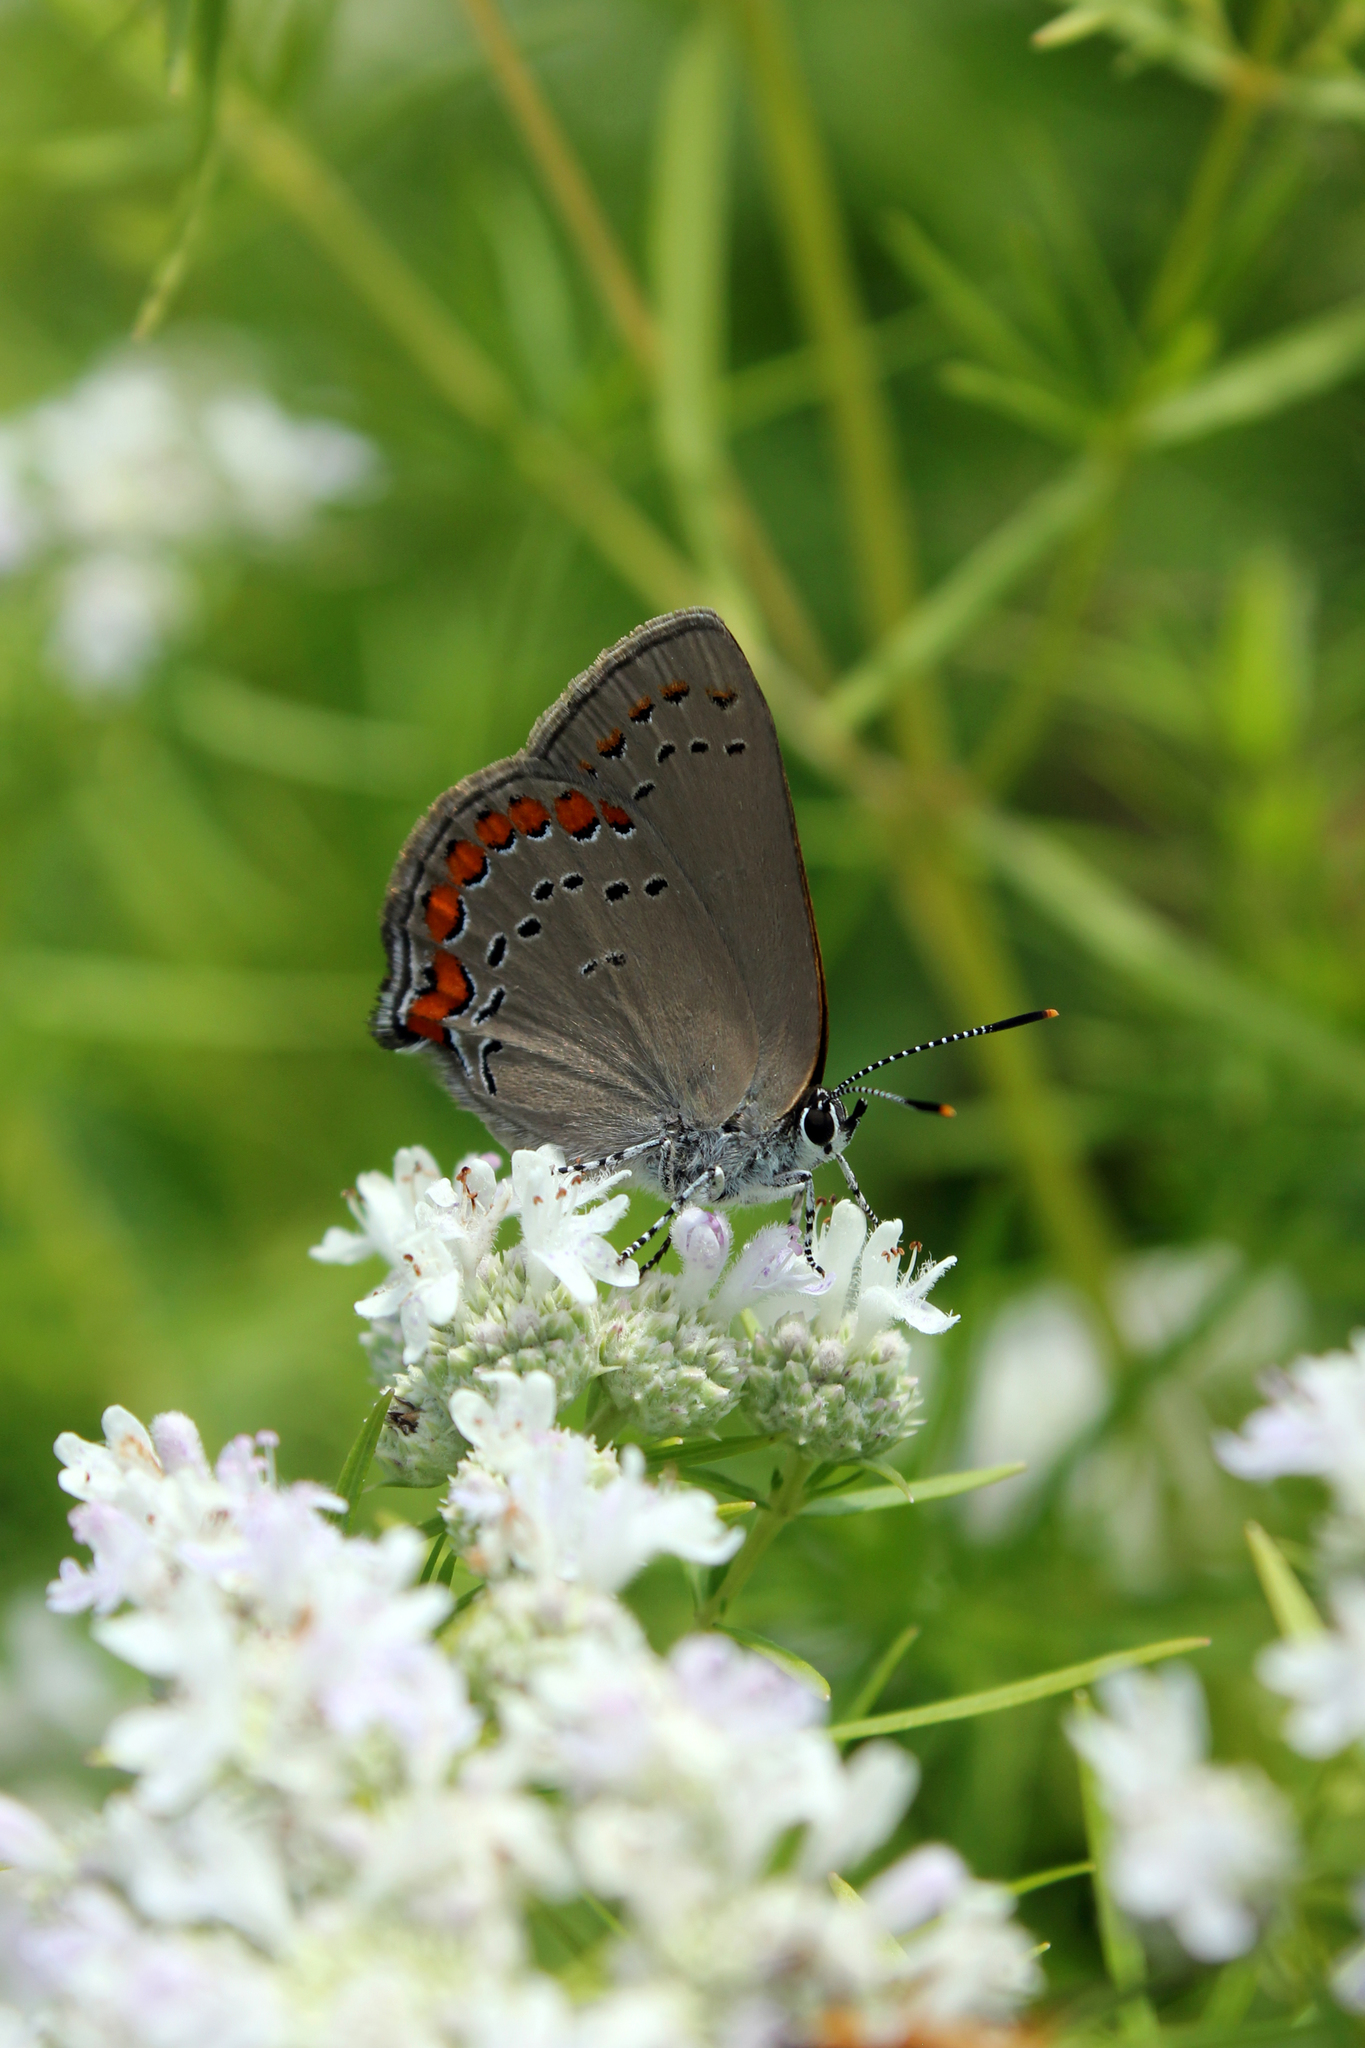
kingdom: Animalia
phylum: Arthropoda
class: Insecta
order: Lepidoptera
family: Lycaenidae
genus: Harkenclenus
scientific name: Harkenclenus titus
